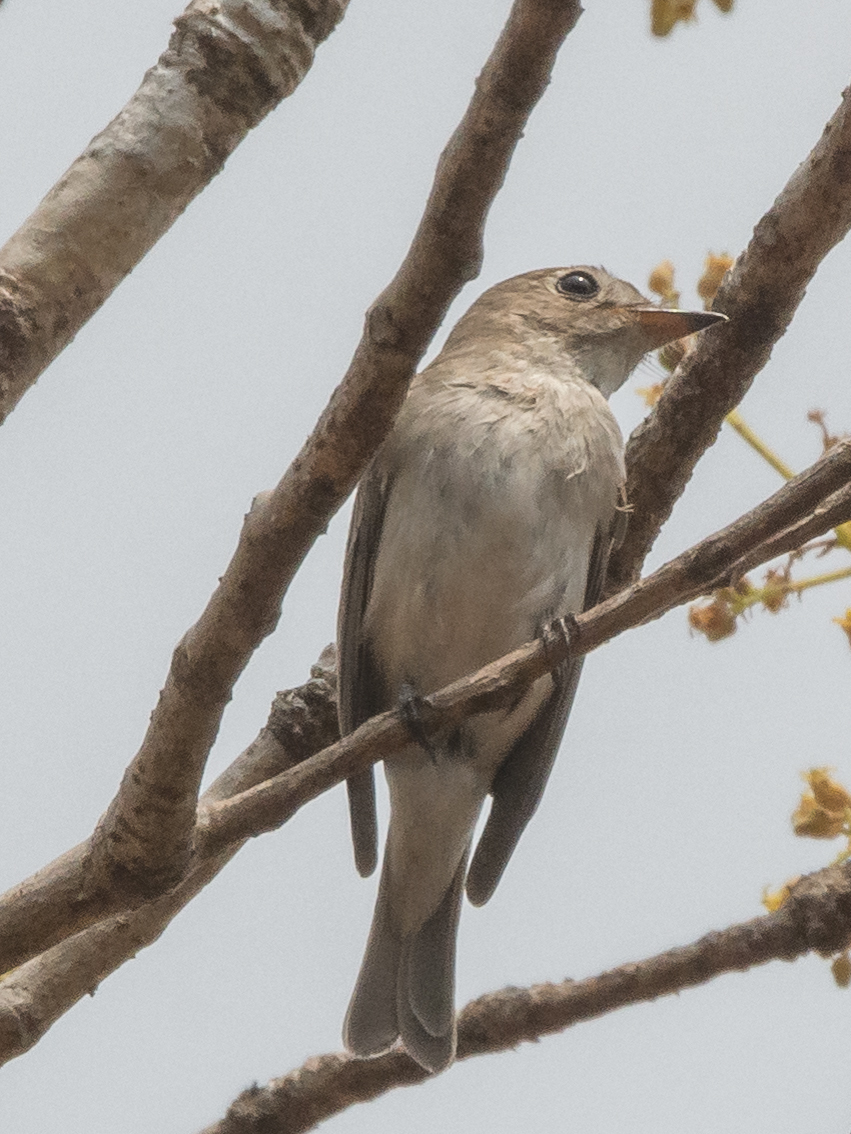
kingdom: Animalia
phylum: Chordata
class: Aves
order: Passeriformes
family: Muscicapidae
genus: Muscicapa
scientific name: Muscicapa latirostris
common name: Asian brown flycatcher
